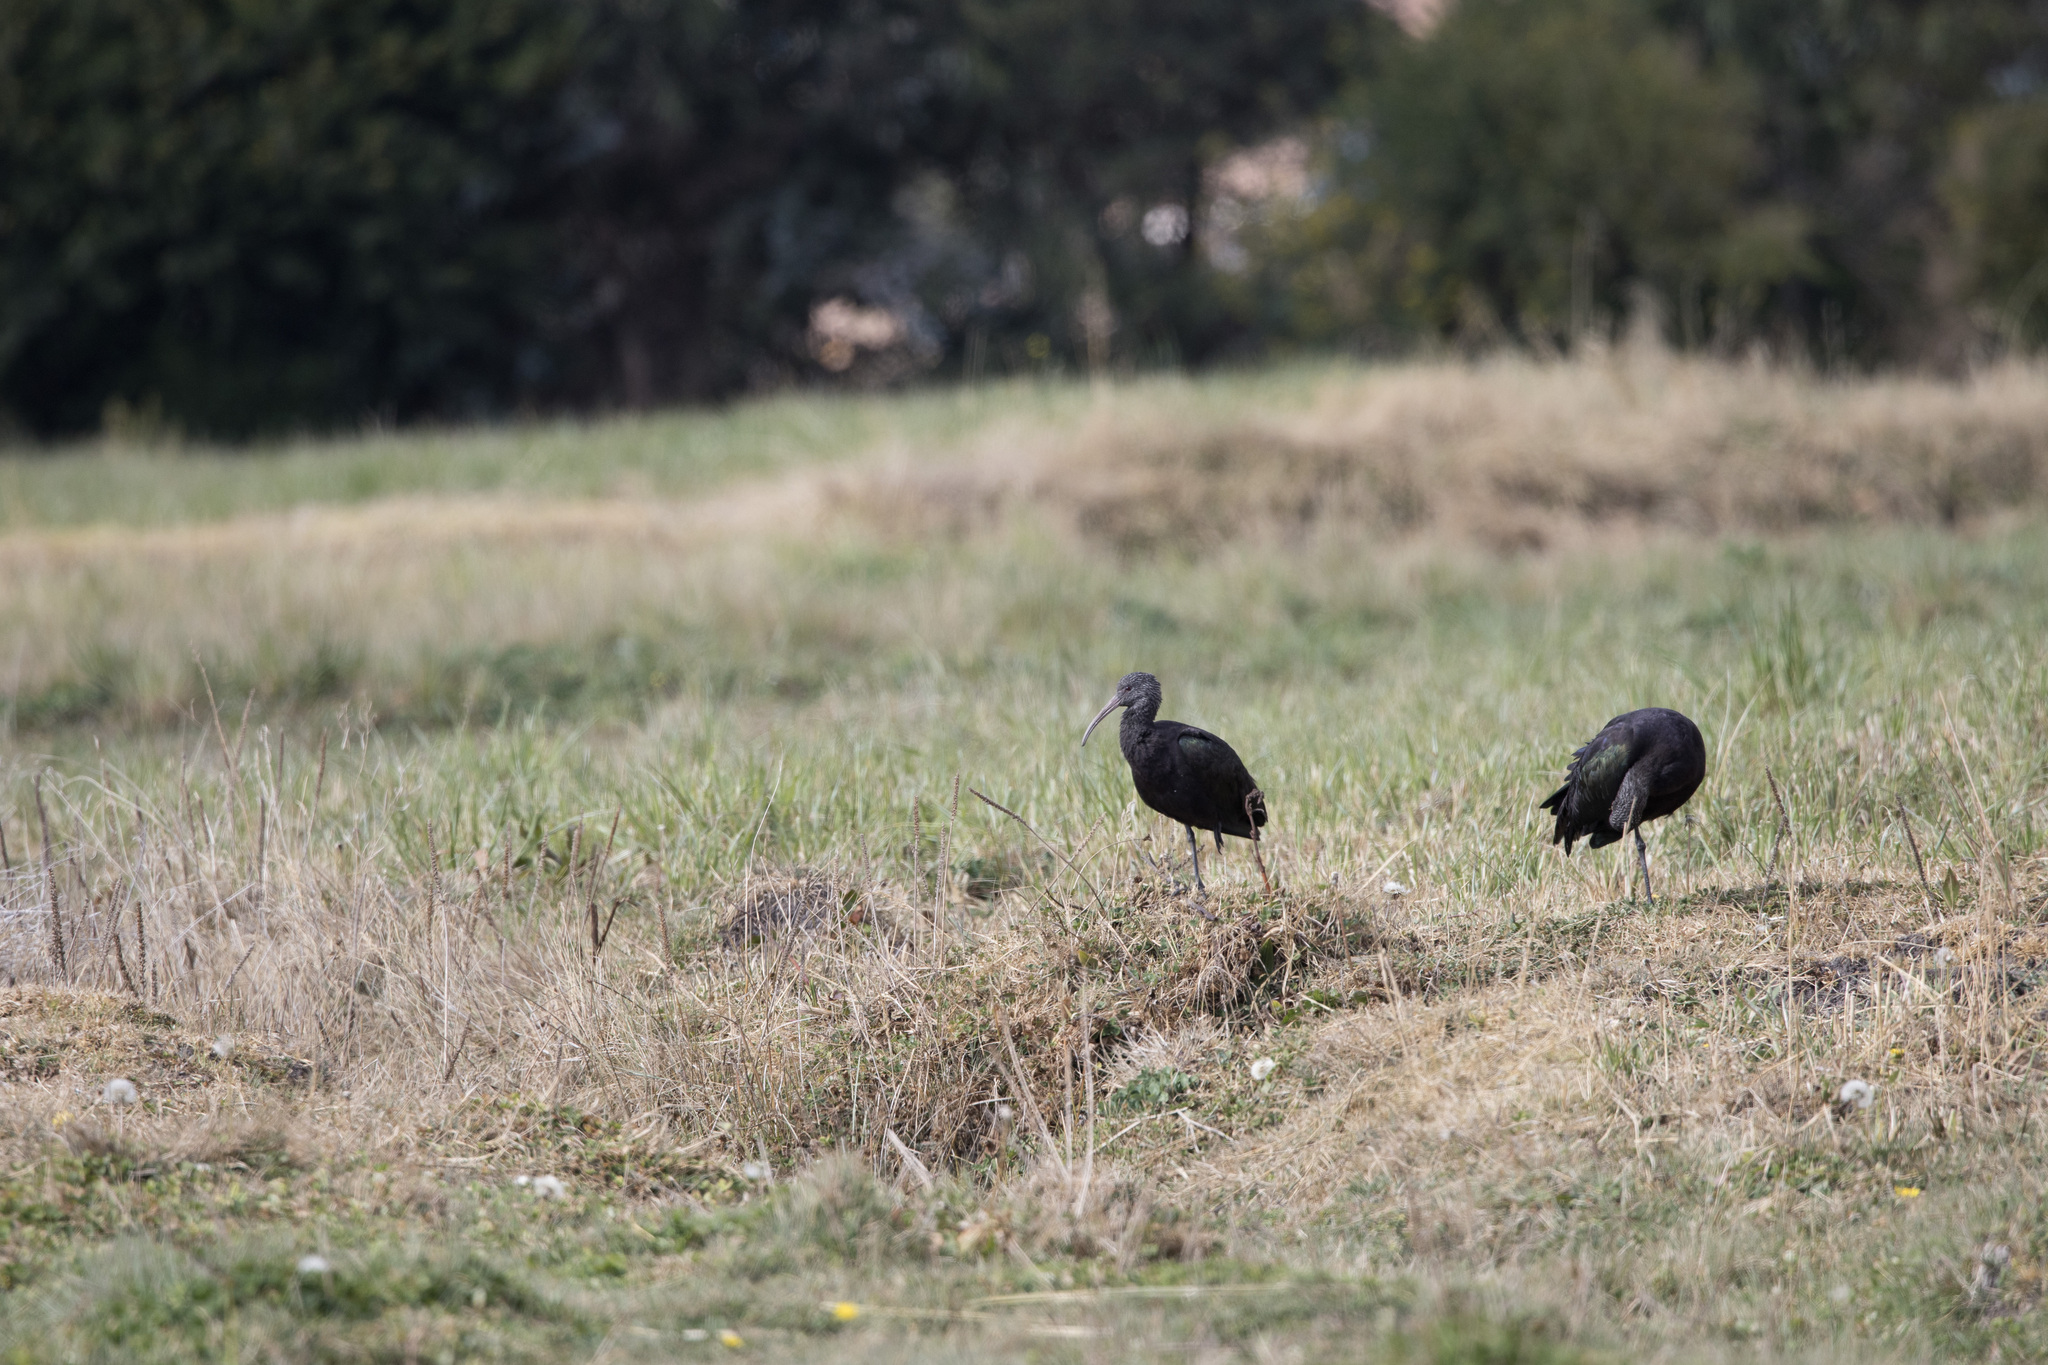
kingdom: Animalia
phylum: Chordata
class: Aves
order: Pelecaniformes
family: Threskiornithidae
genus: Plegadis
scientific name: Plegadis ridgwayi
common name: Puna ibis
